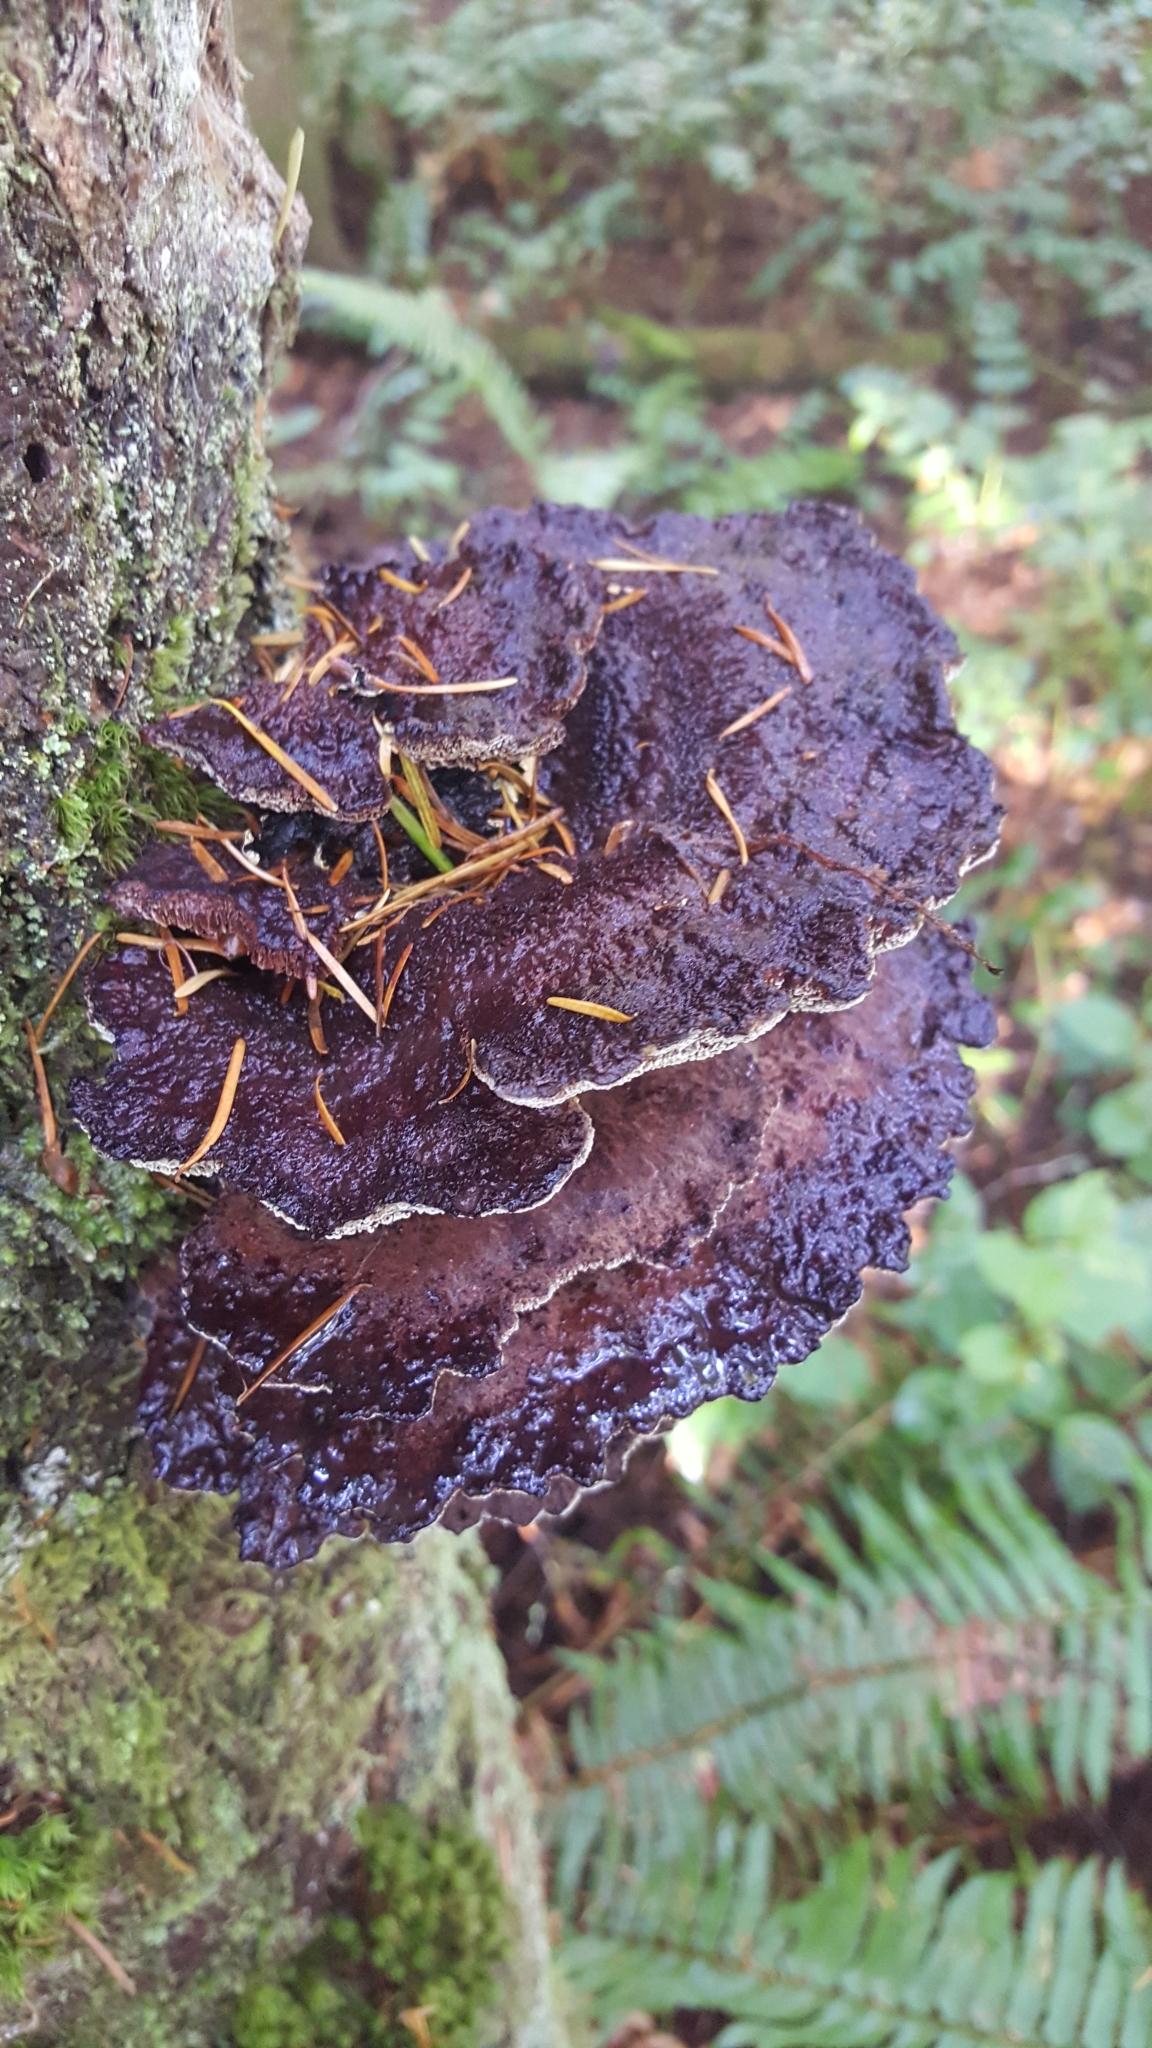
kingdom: Fungi
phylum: Basidiomycota
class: Agaricomycetes
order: Polyporales
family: Laetiporaceae
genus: Phaeolus
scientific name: Phaeolus schweinitzii
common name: Dyer's mazegill
